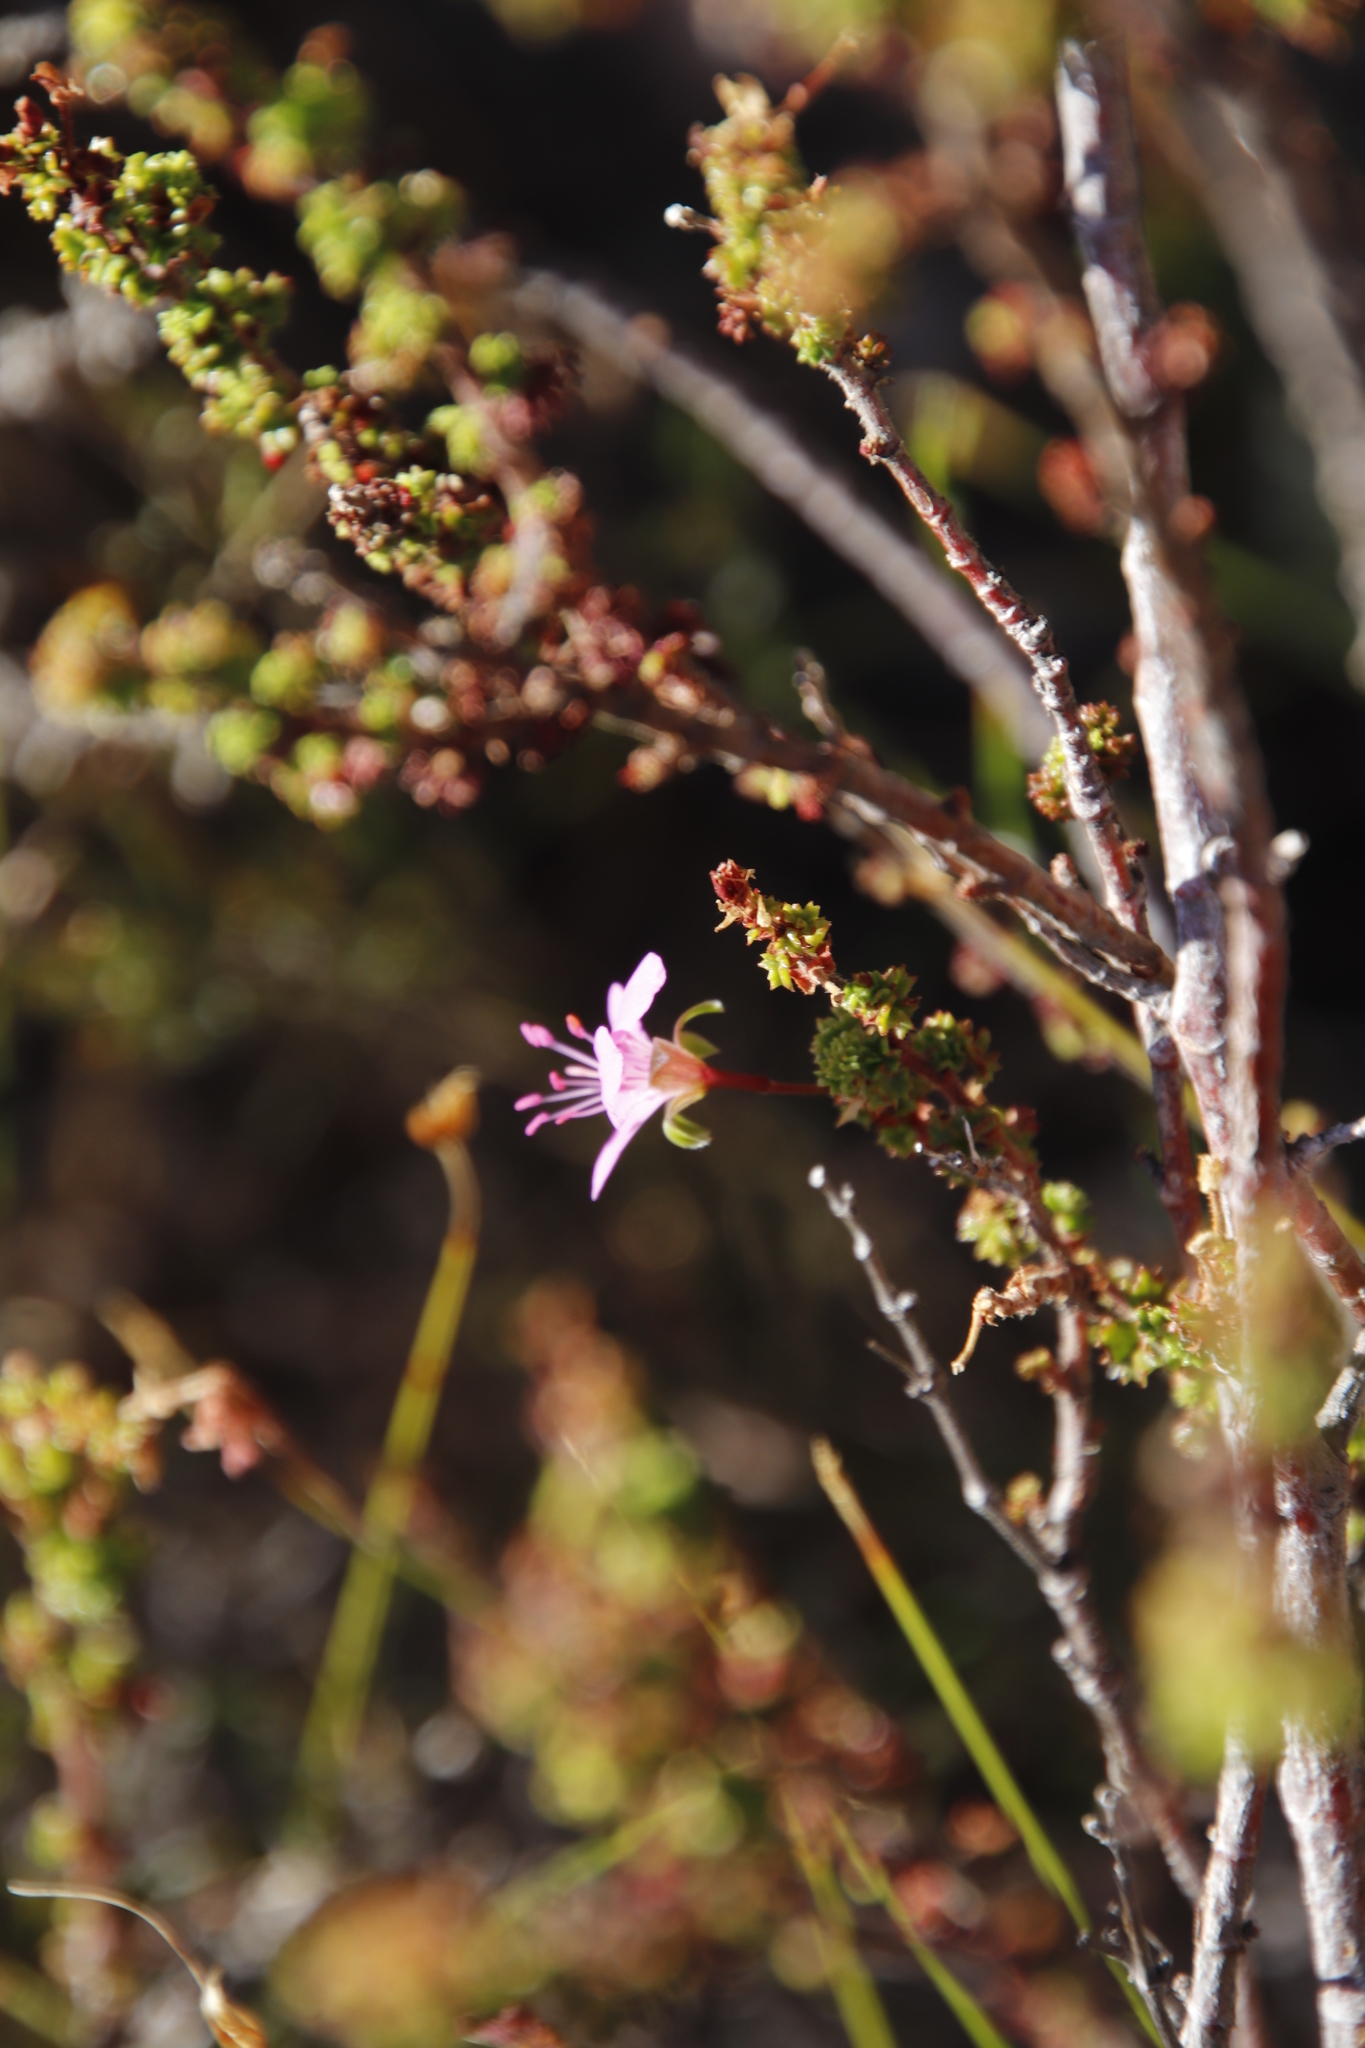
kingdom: Plantae
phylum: Tracheophyta
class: Magnoliopsida
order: Geraniales
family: Geraniaceae
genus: Pelargonium
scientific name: Pelargonium englerianum
